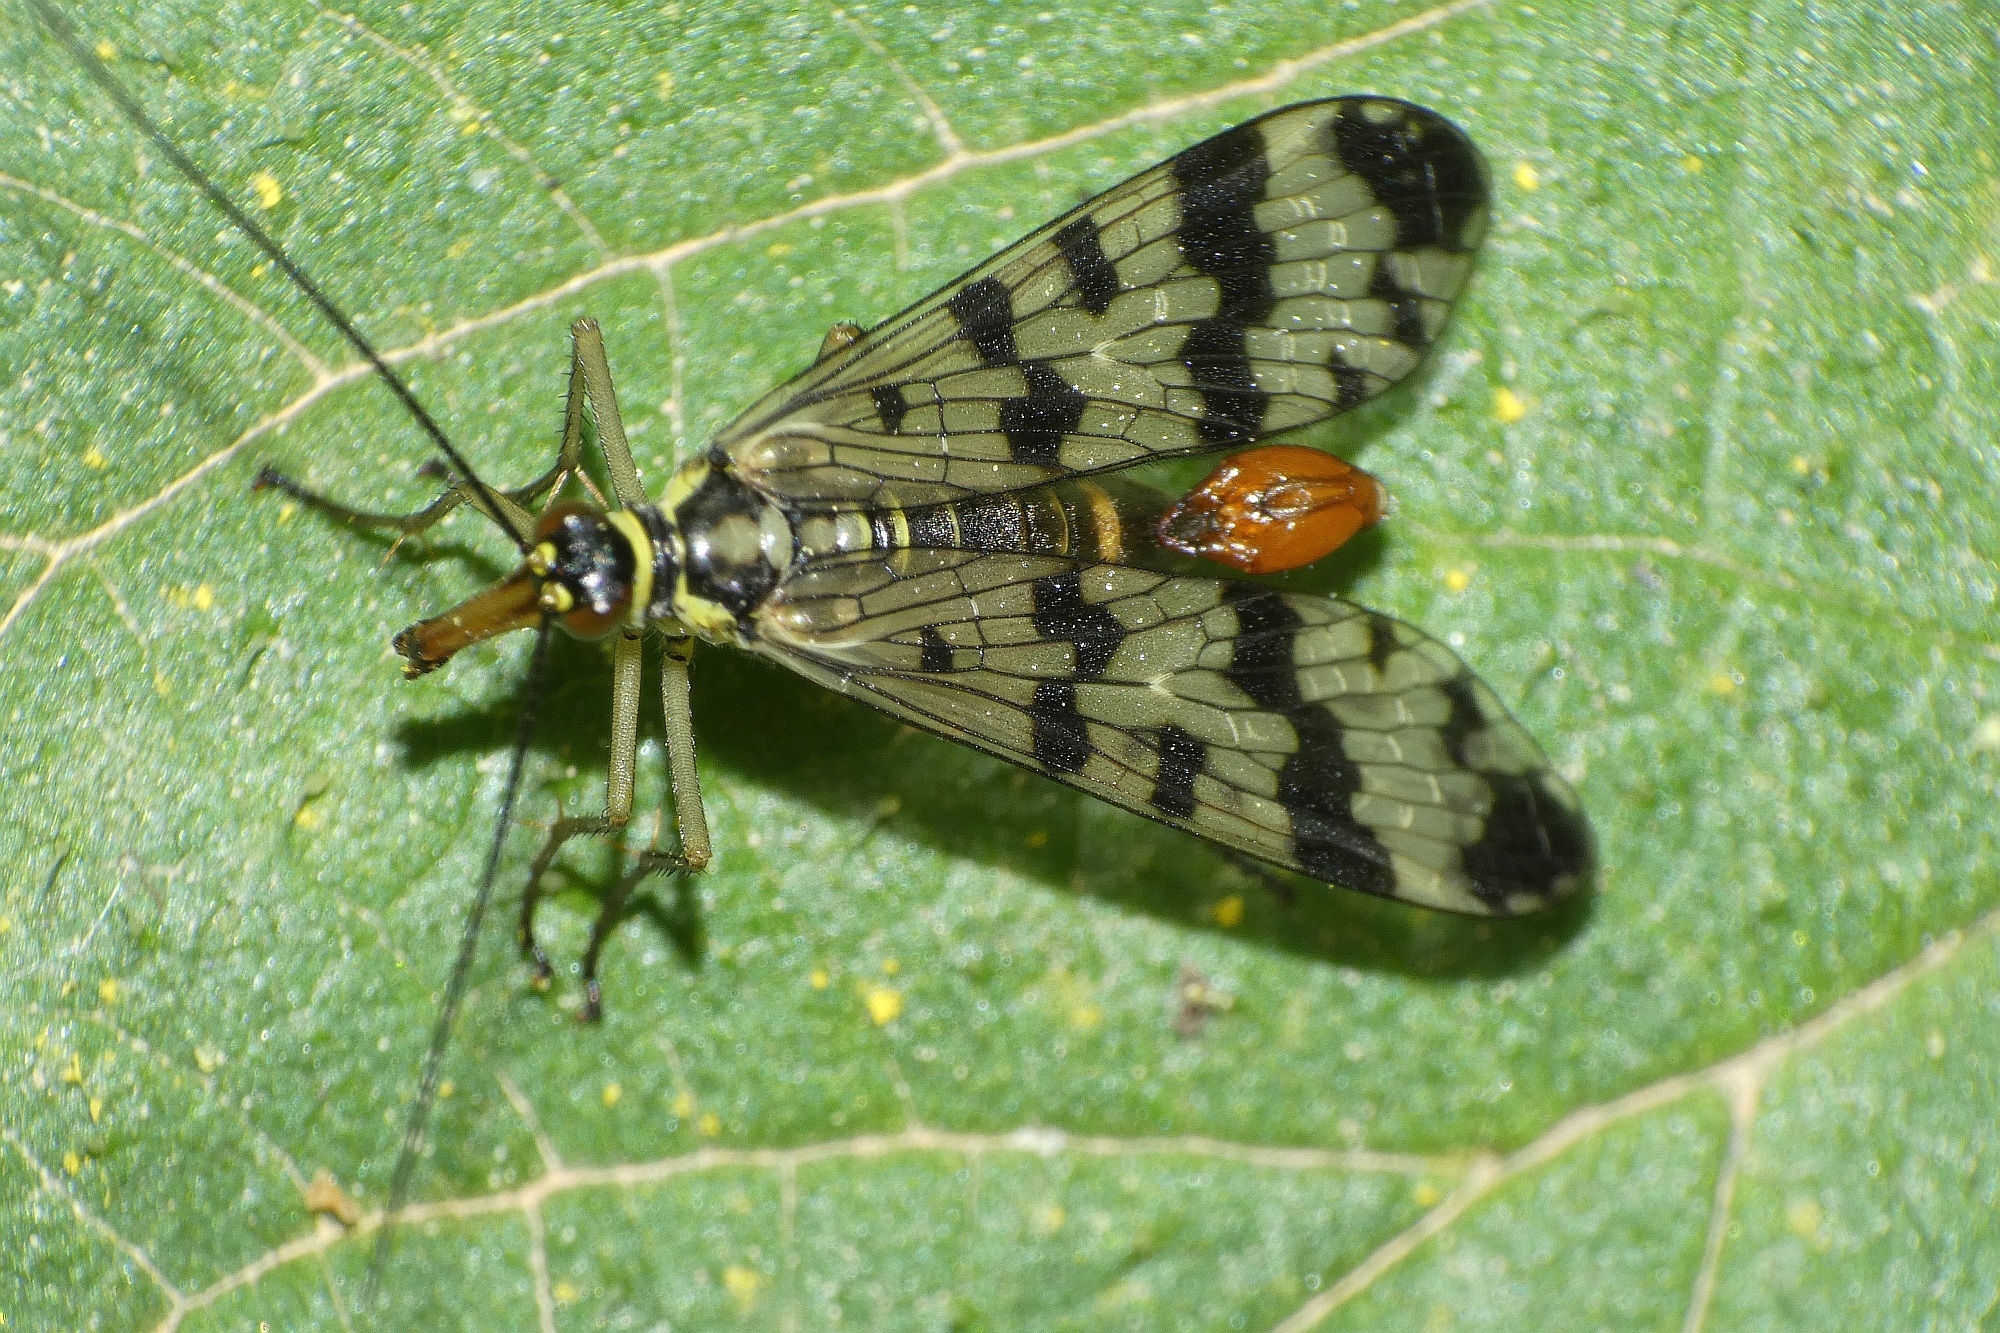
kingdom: Animalia
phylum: Arthropoda
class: Insecta
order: Mecoptera
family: Panorpidae
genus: Panorpa
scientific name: Panorpa communis
